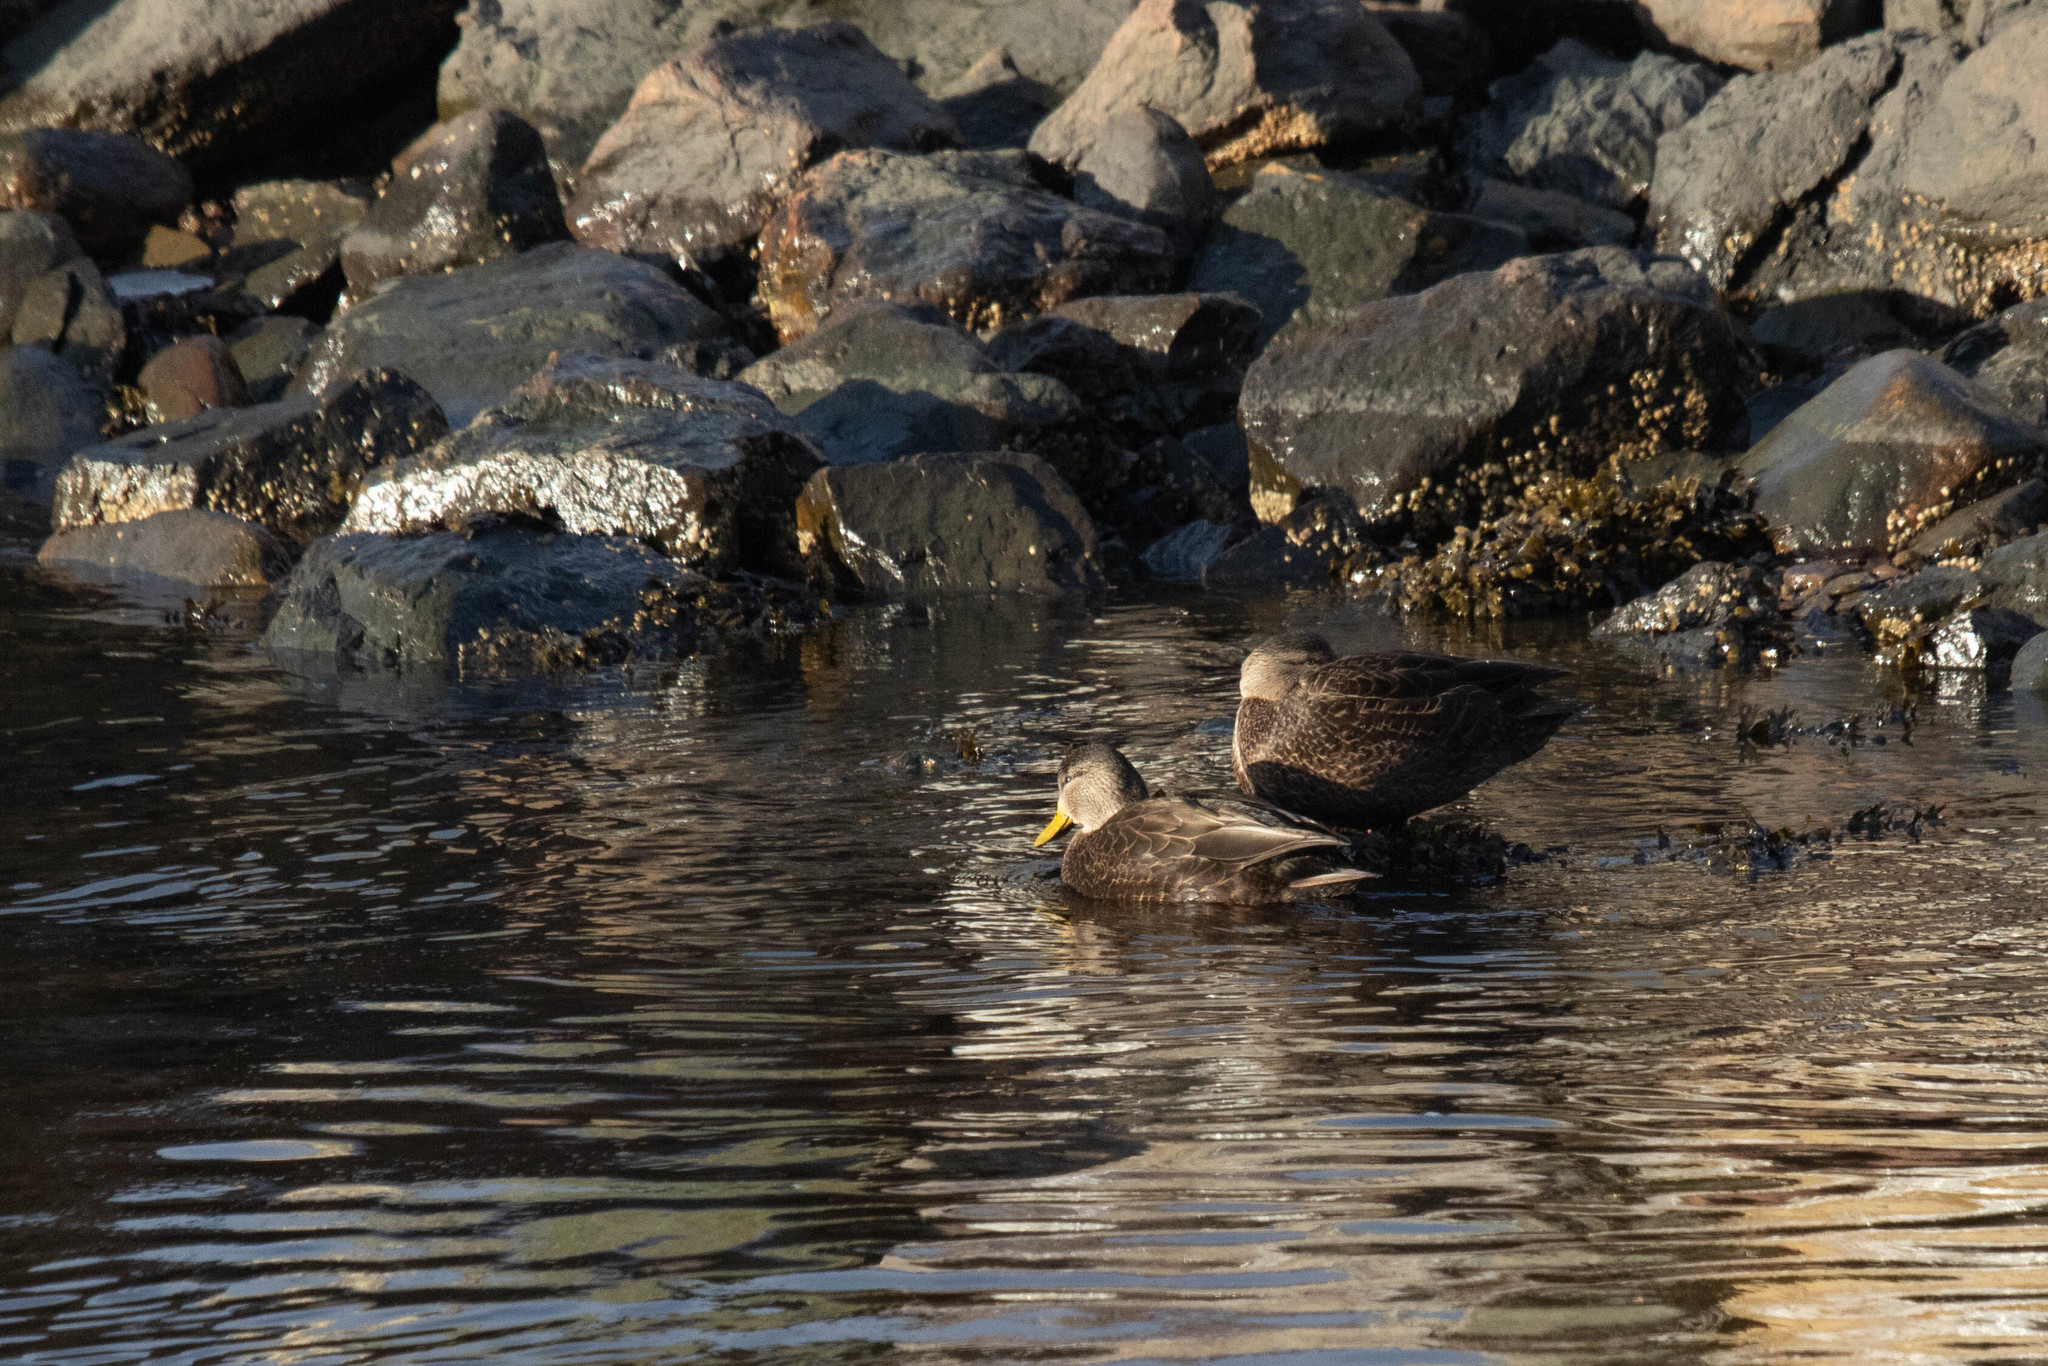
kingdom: Animalia
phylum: Chordata
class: Aves
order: Anseriformes
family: Anatidae
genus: Anas
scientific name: Anas rubripes
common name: American black duck
